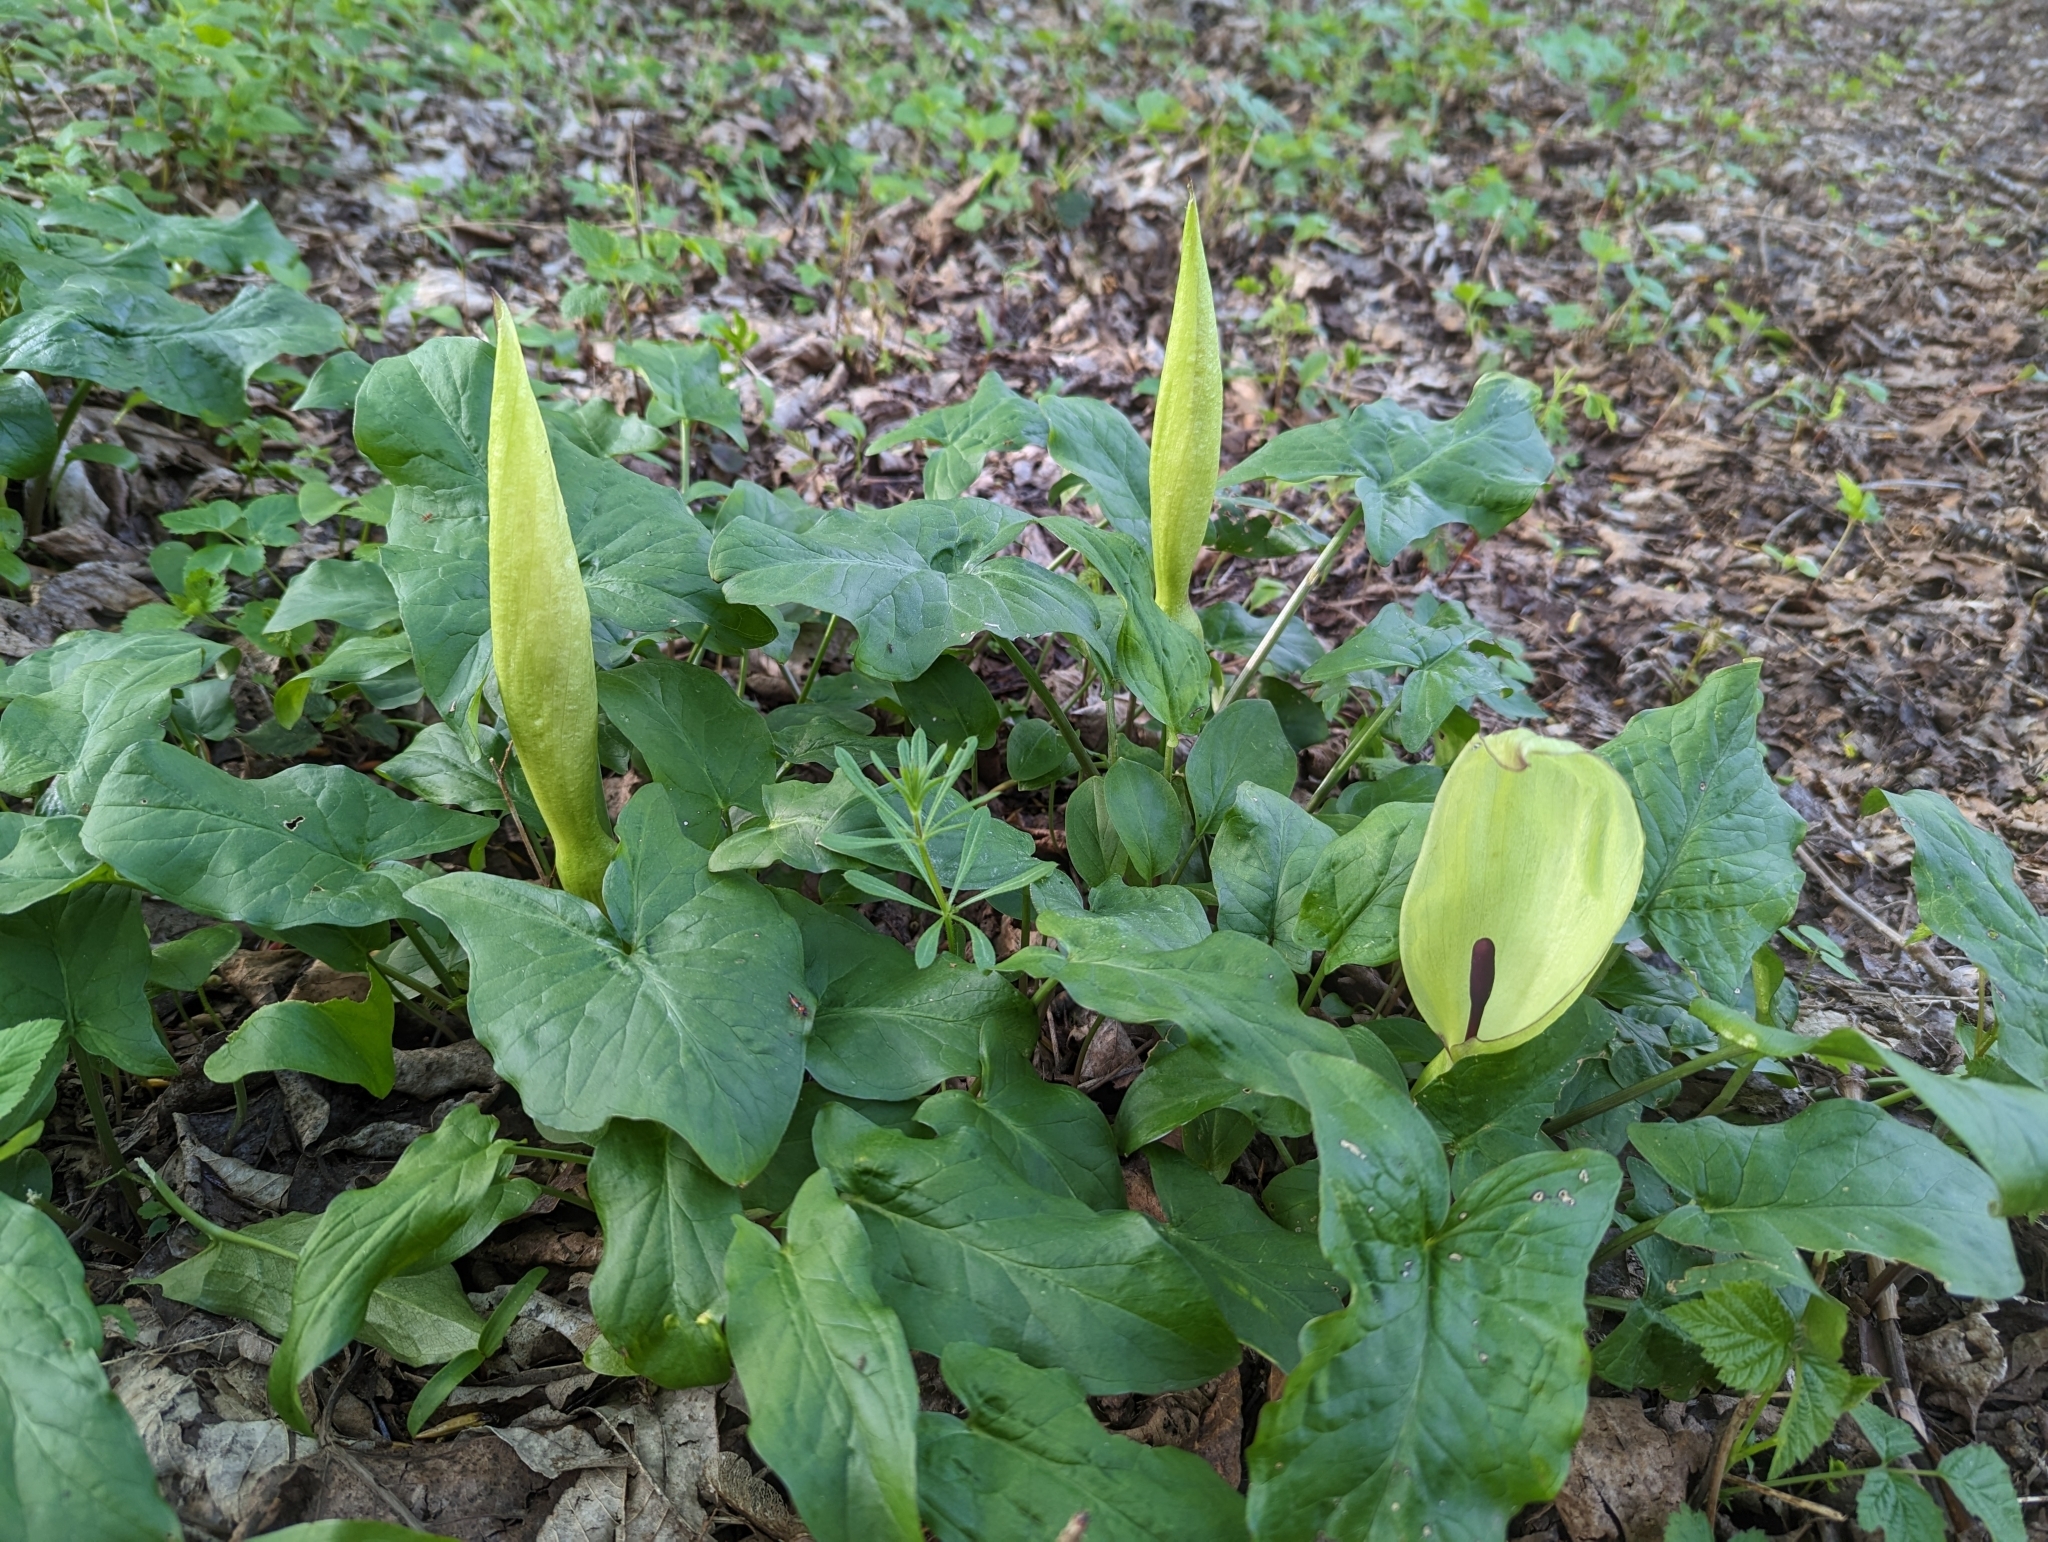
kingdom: Plantae
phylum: Tracheophyta
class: Liliopsida
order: Alismatales
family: Araceae
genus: Arum
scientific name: Arum maculatum
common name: Lords-and-ladies
